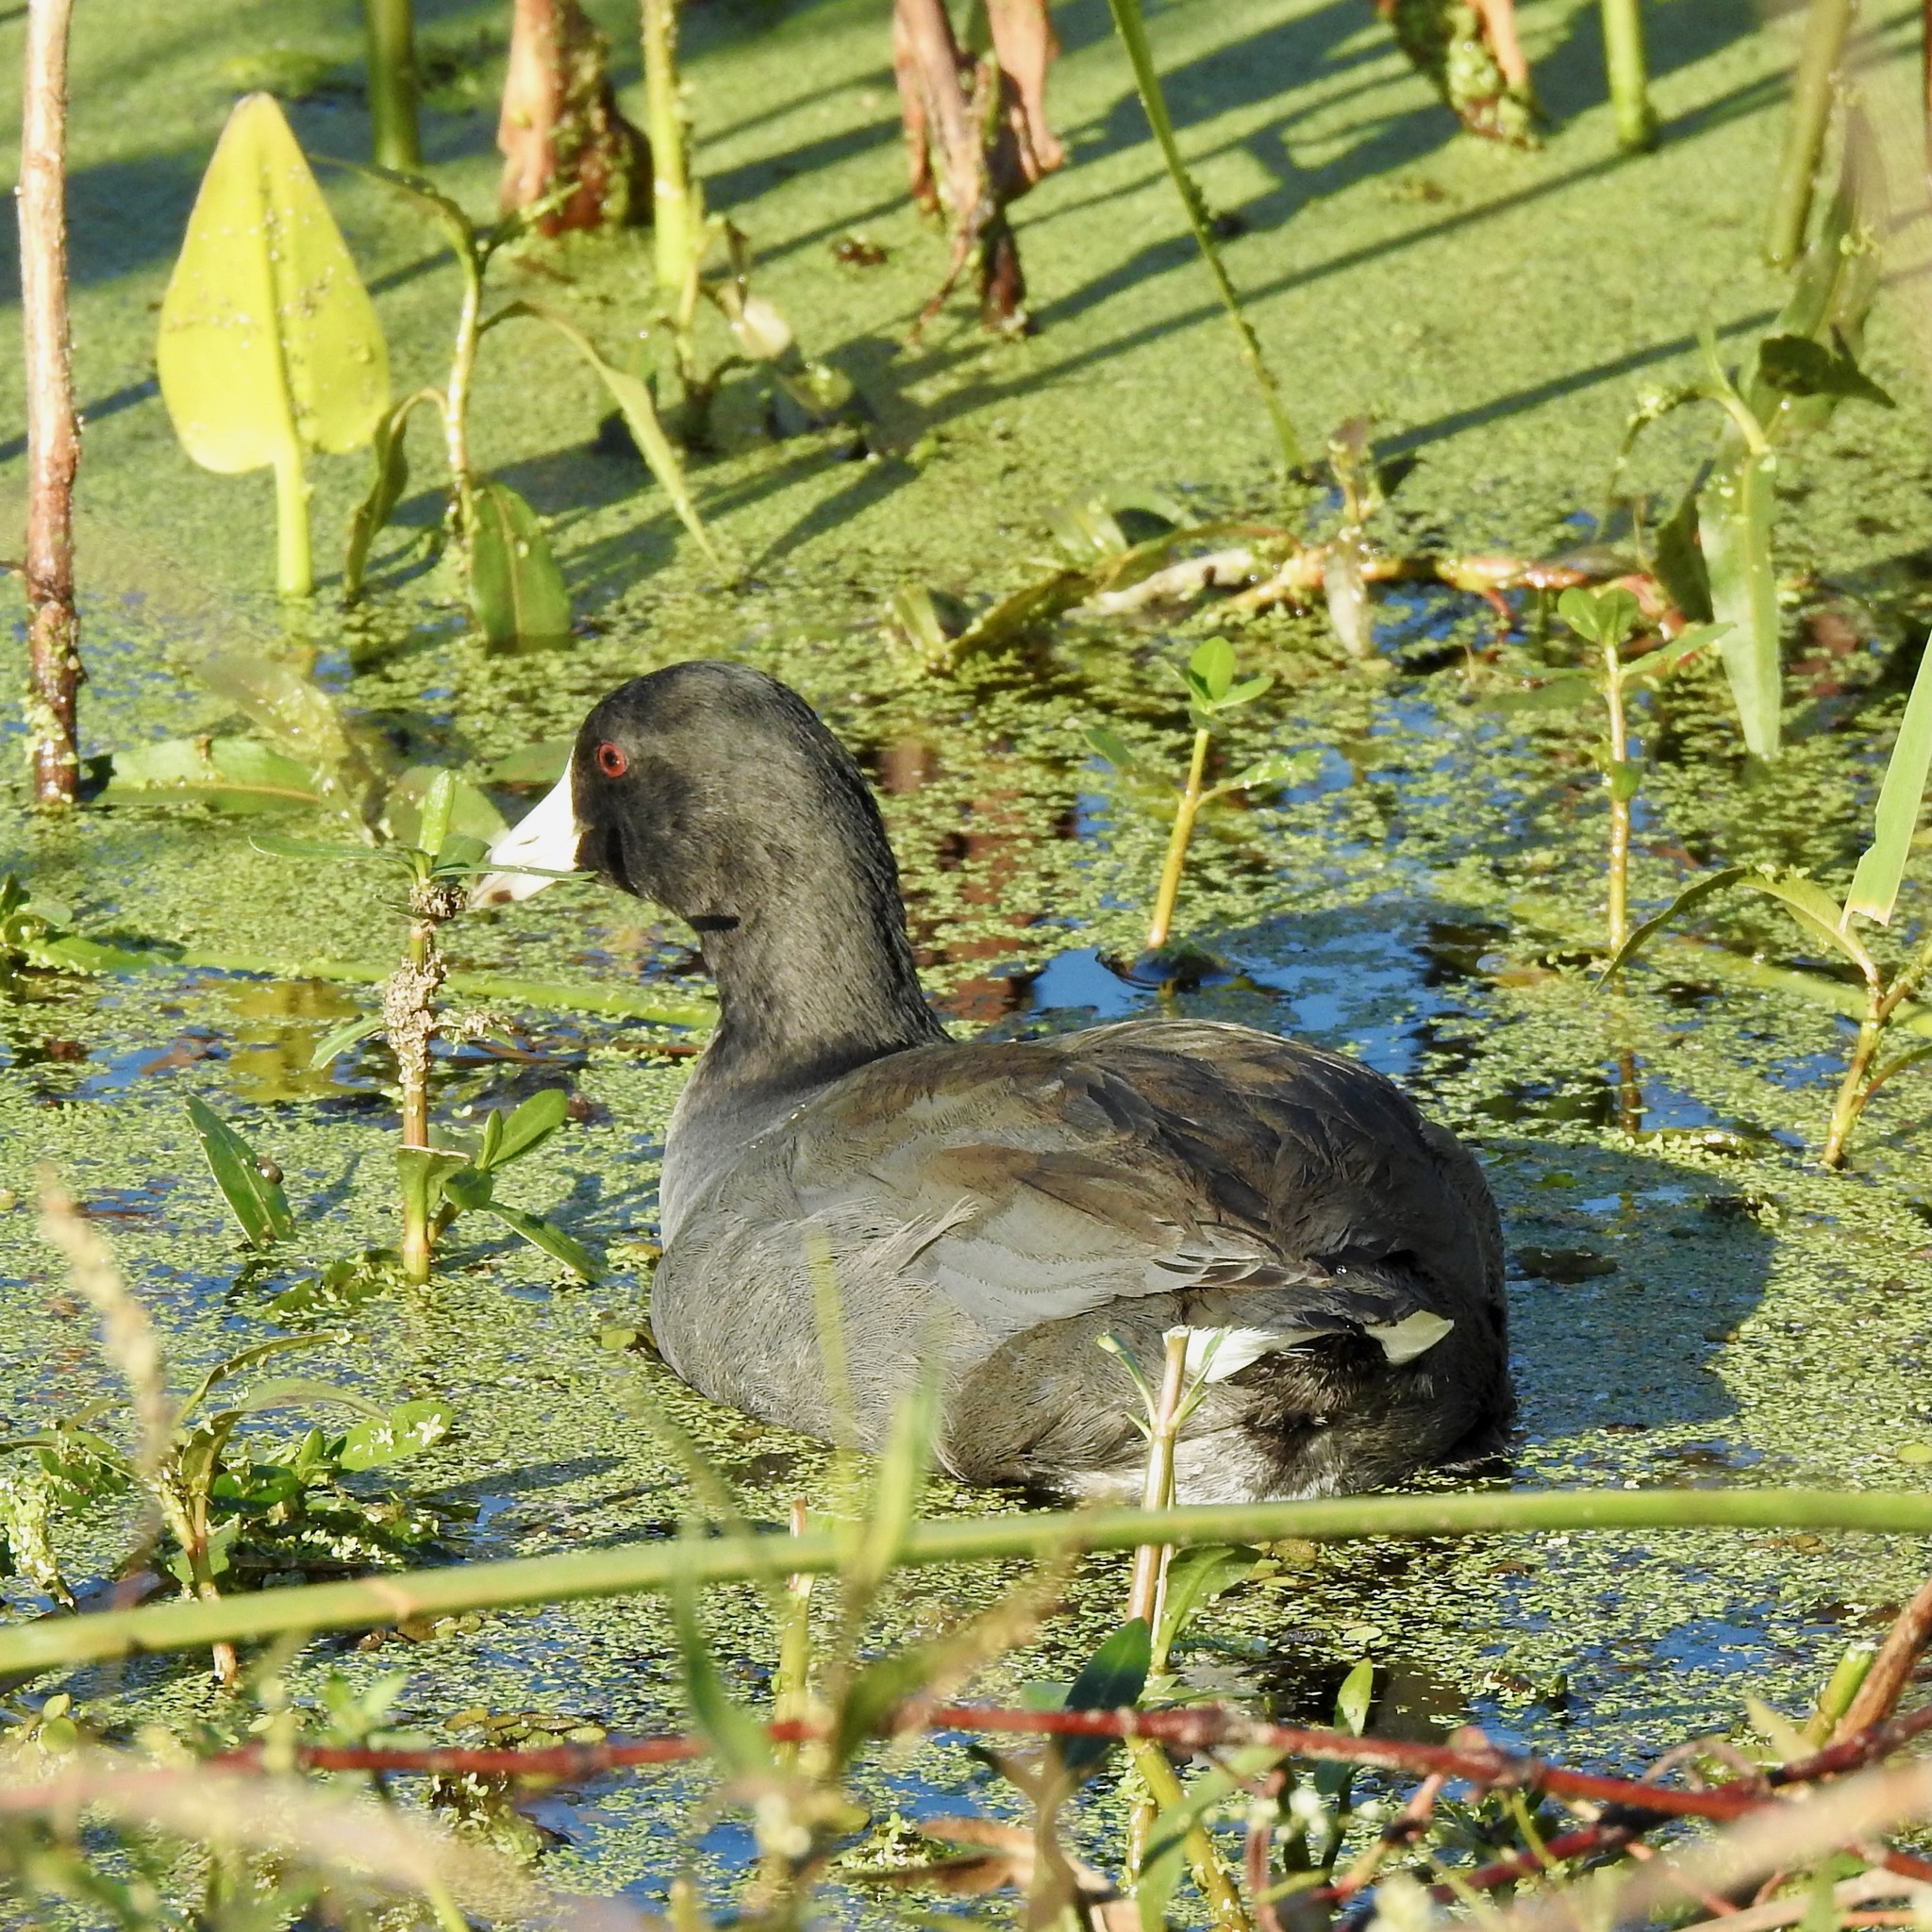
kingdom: Animalia
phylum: Chordata
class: Aves
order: Gruiformes
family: Rallidae
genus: Fulica
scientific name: Fulica americana
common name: American coot
